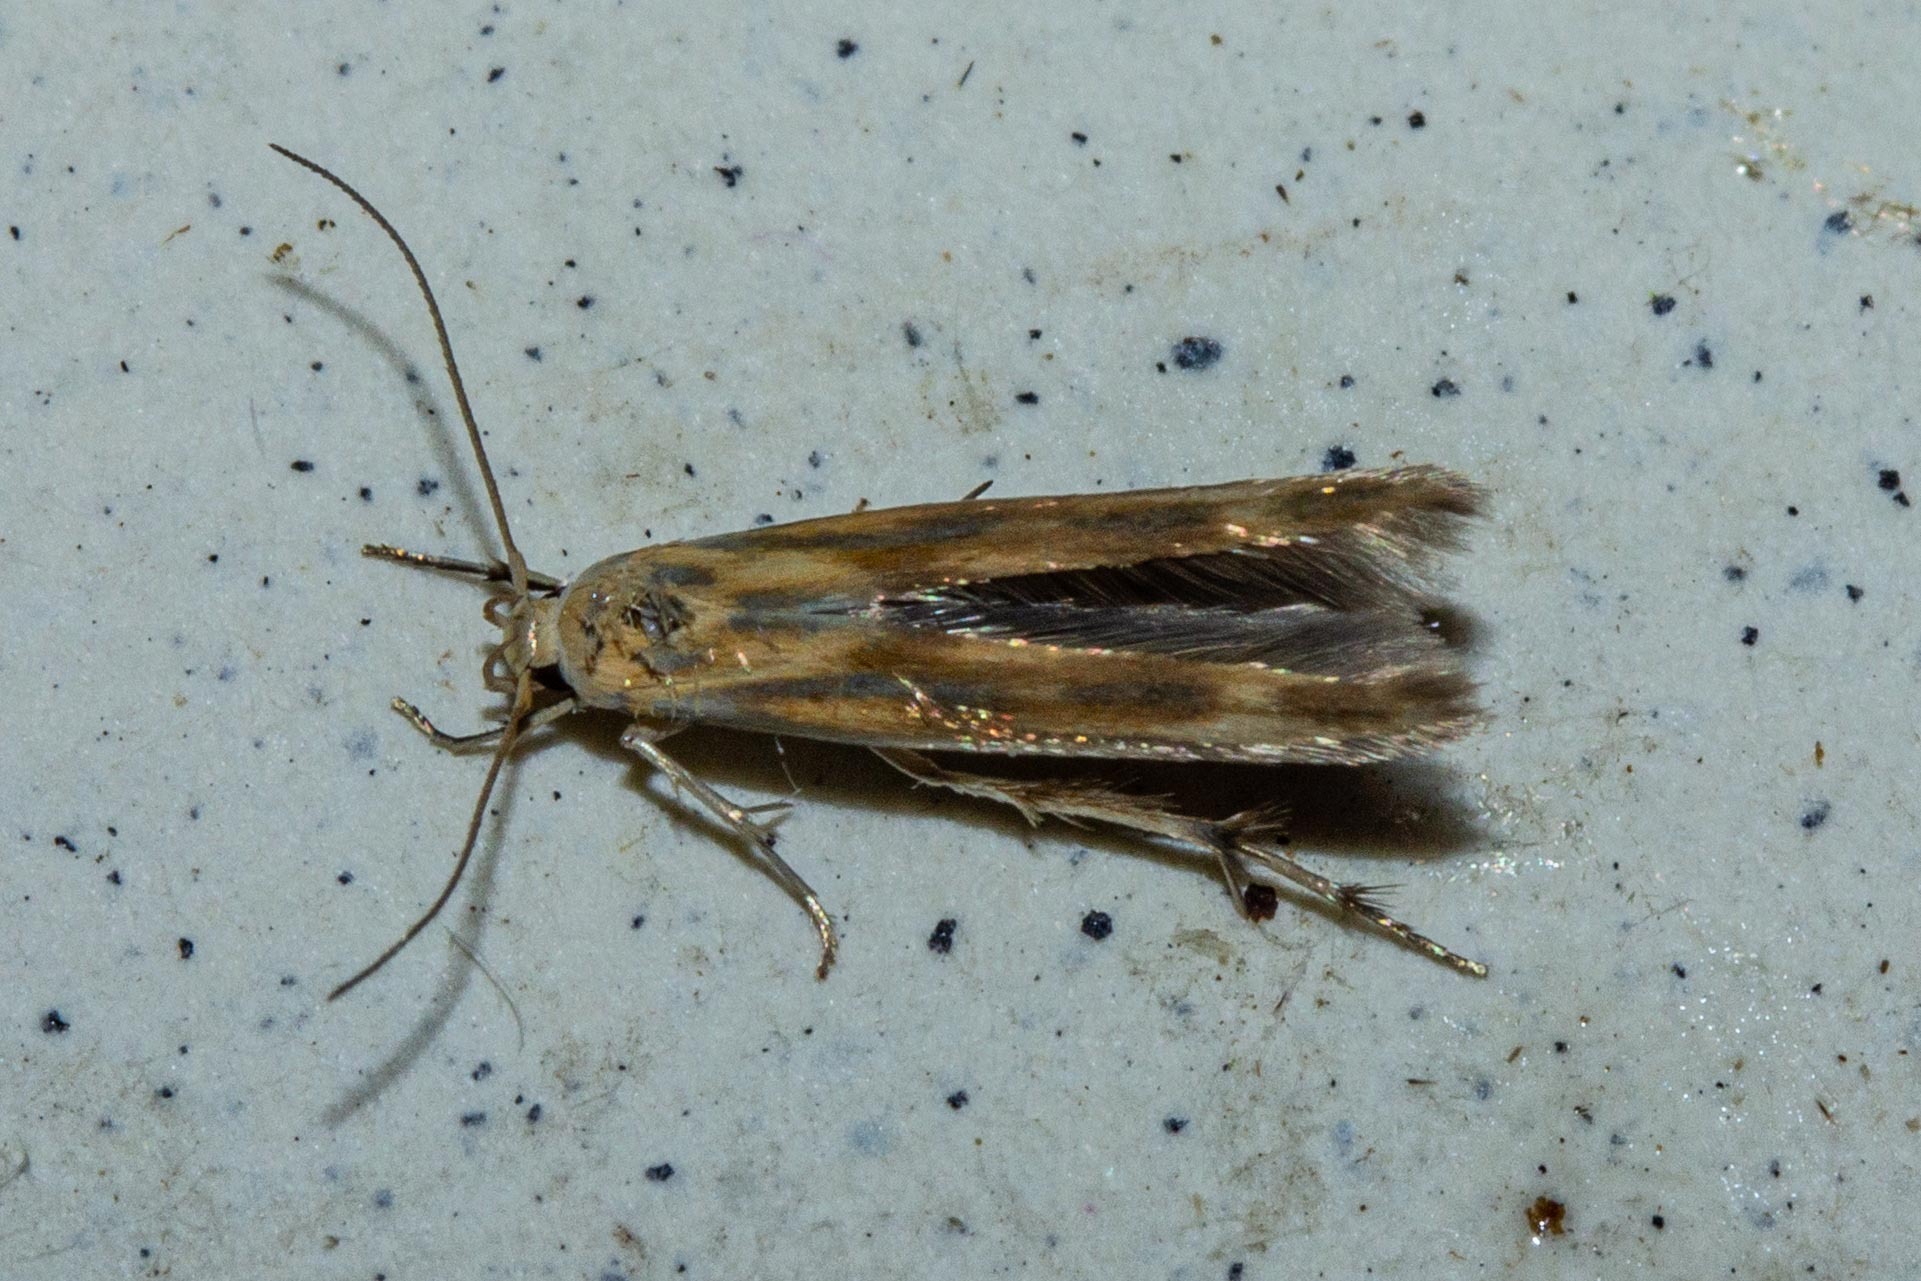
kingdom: Animalia
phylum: Arthropoda
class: Insecta
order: Lepidoptera
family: Stathmopodidae
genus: Stathmopoda
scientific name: Stathmopoda horticola
